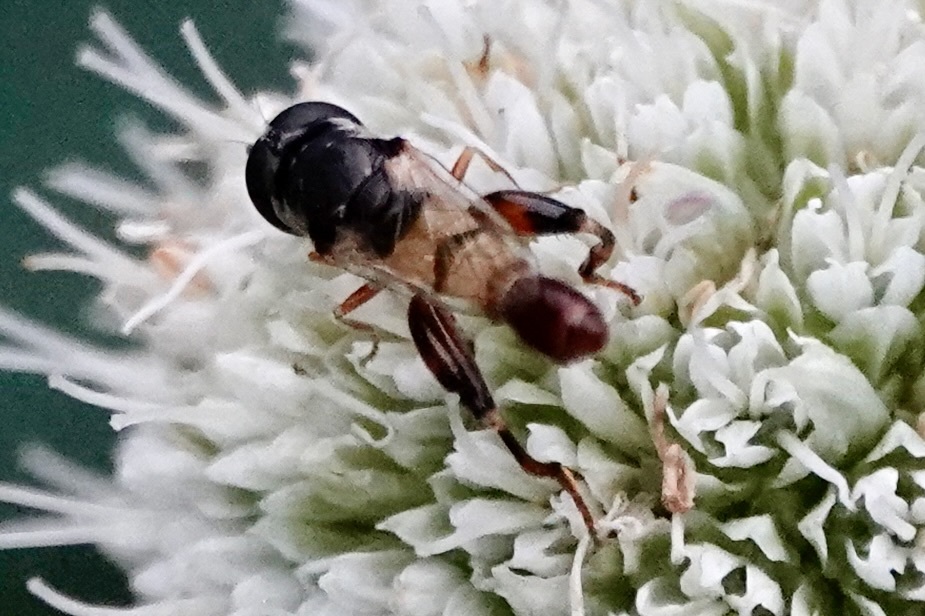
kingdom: Animalia
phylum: Arthropoda
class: Insecta
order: Diptera
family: Syrphidae
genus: Syritta
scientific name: Syritta flaviventris
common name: Syrphid fly
